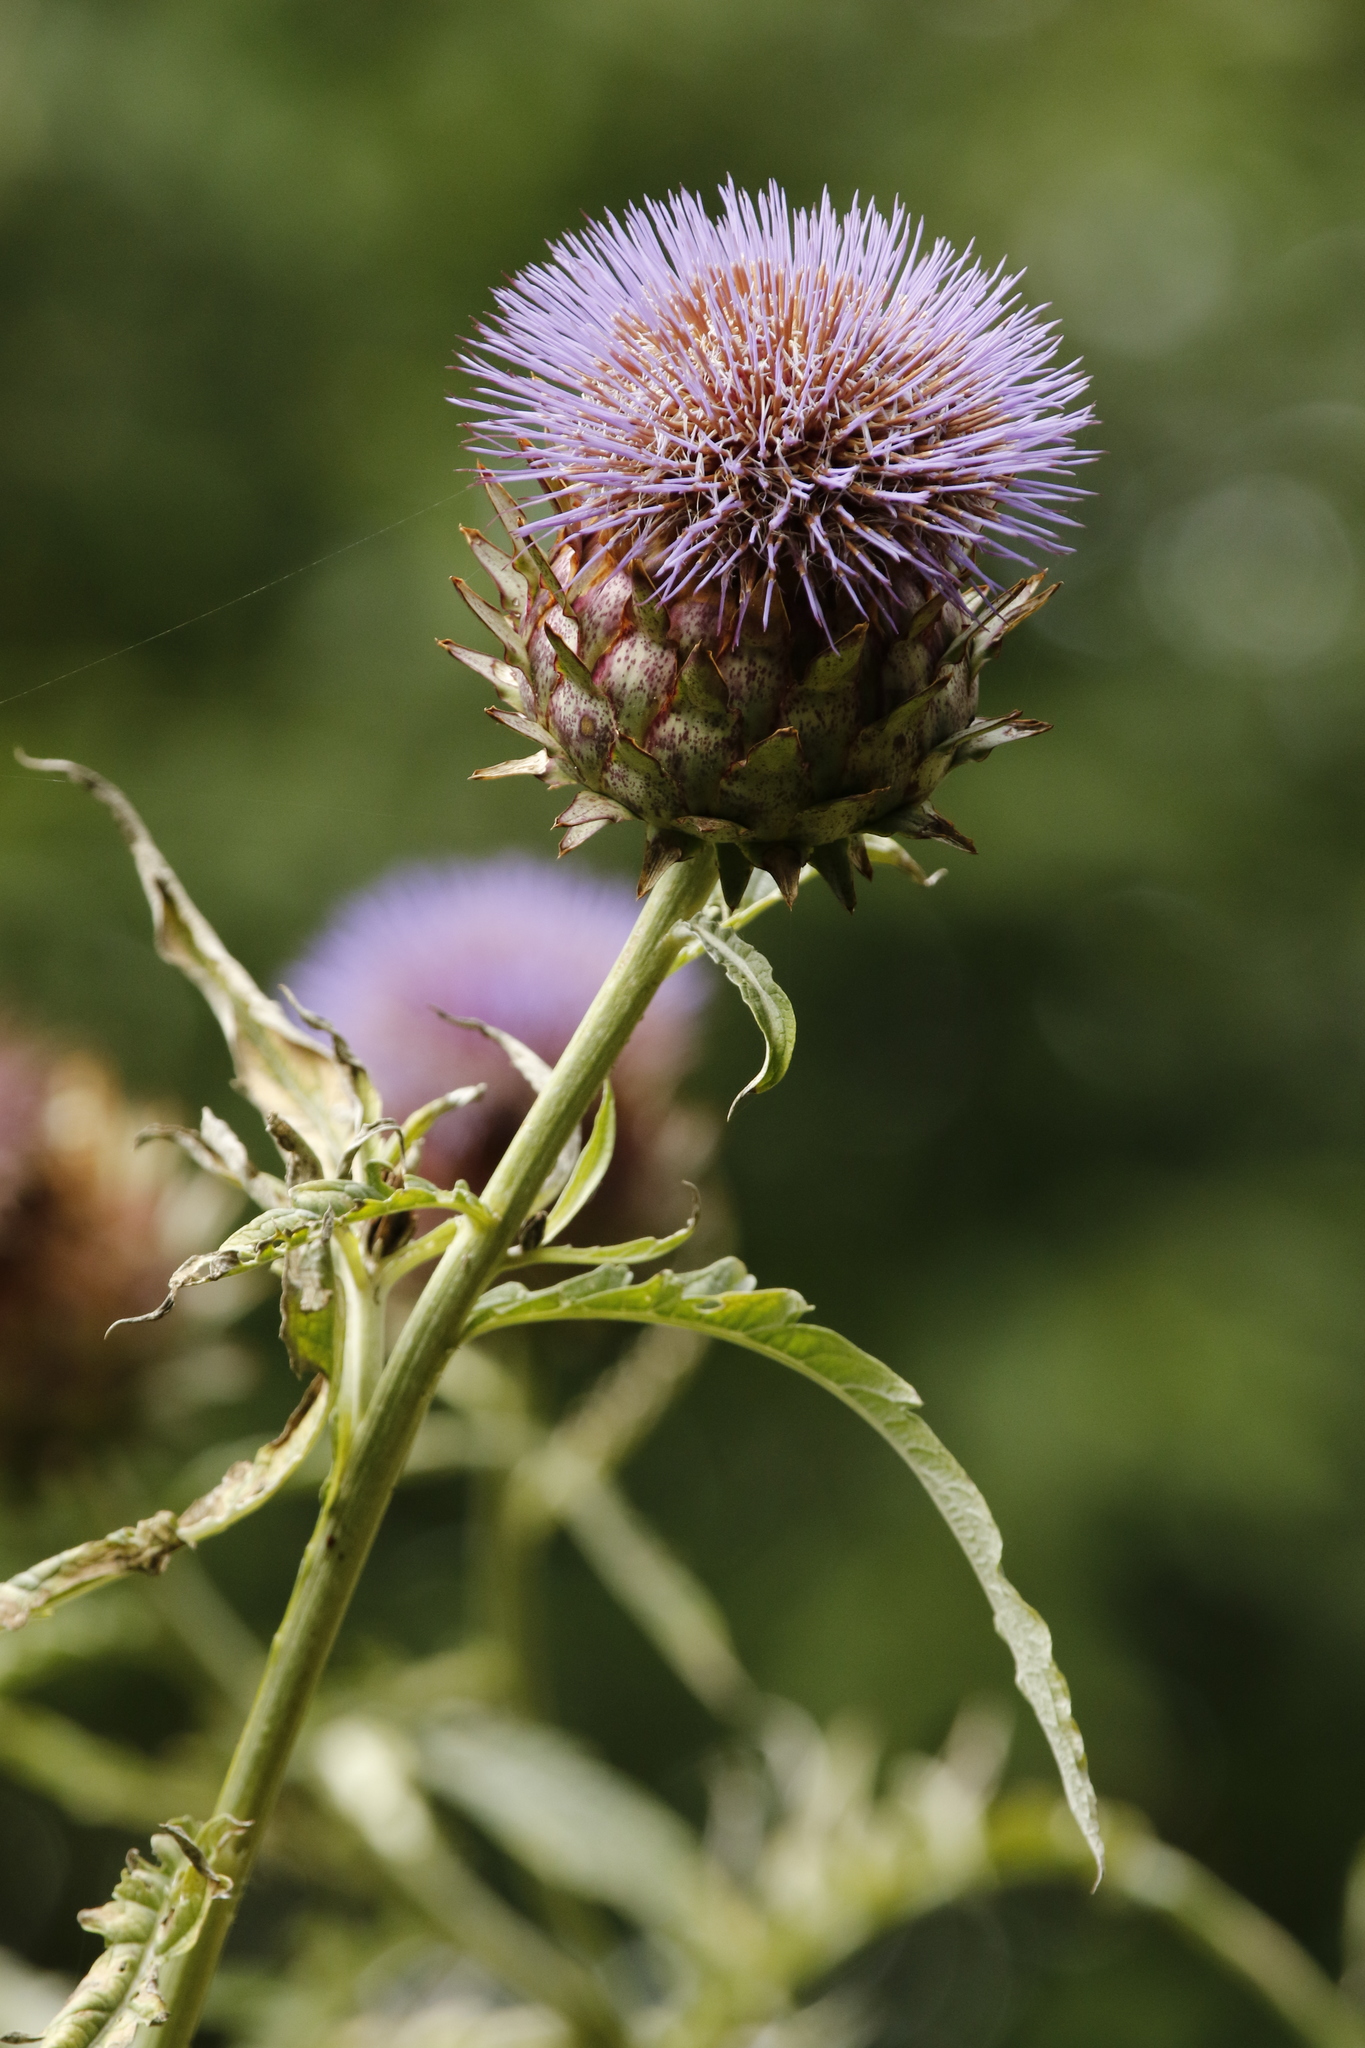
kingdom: Plantae
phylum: Tracheophyta
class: Magnoliopsida
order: Asterales
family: Asteraceae
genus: Cynara
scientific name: Cynara cardunculus
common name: Globe artichoke
